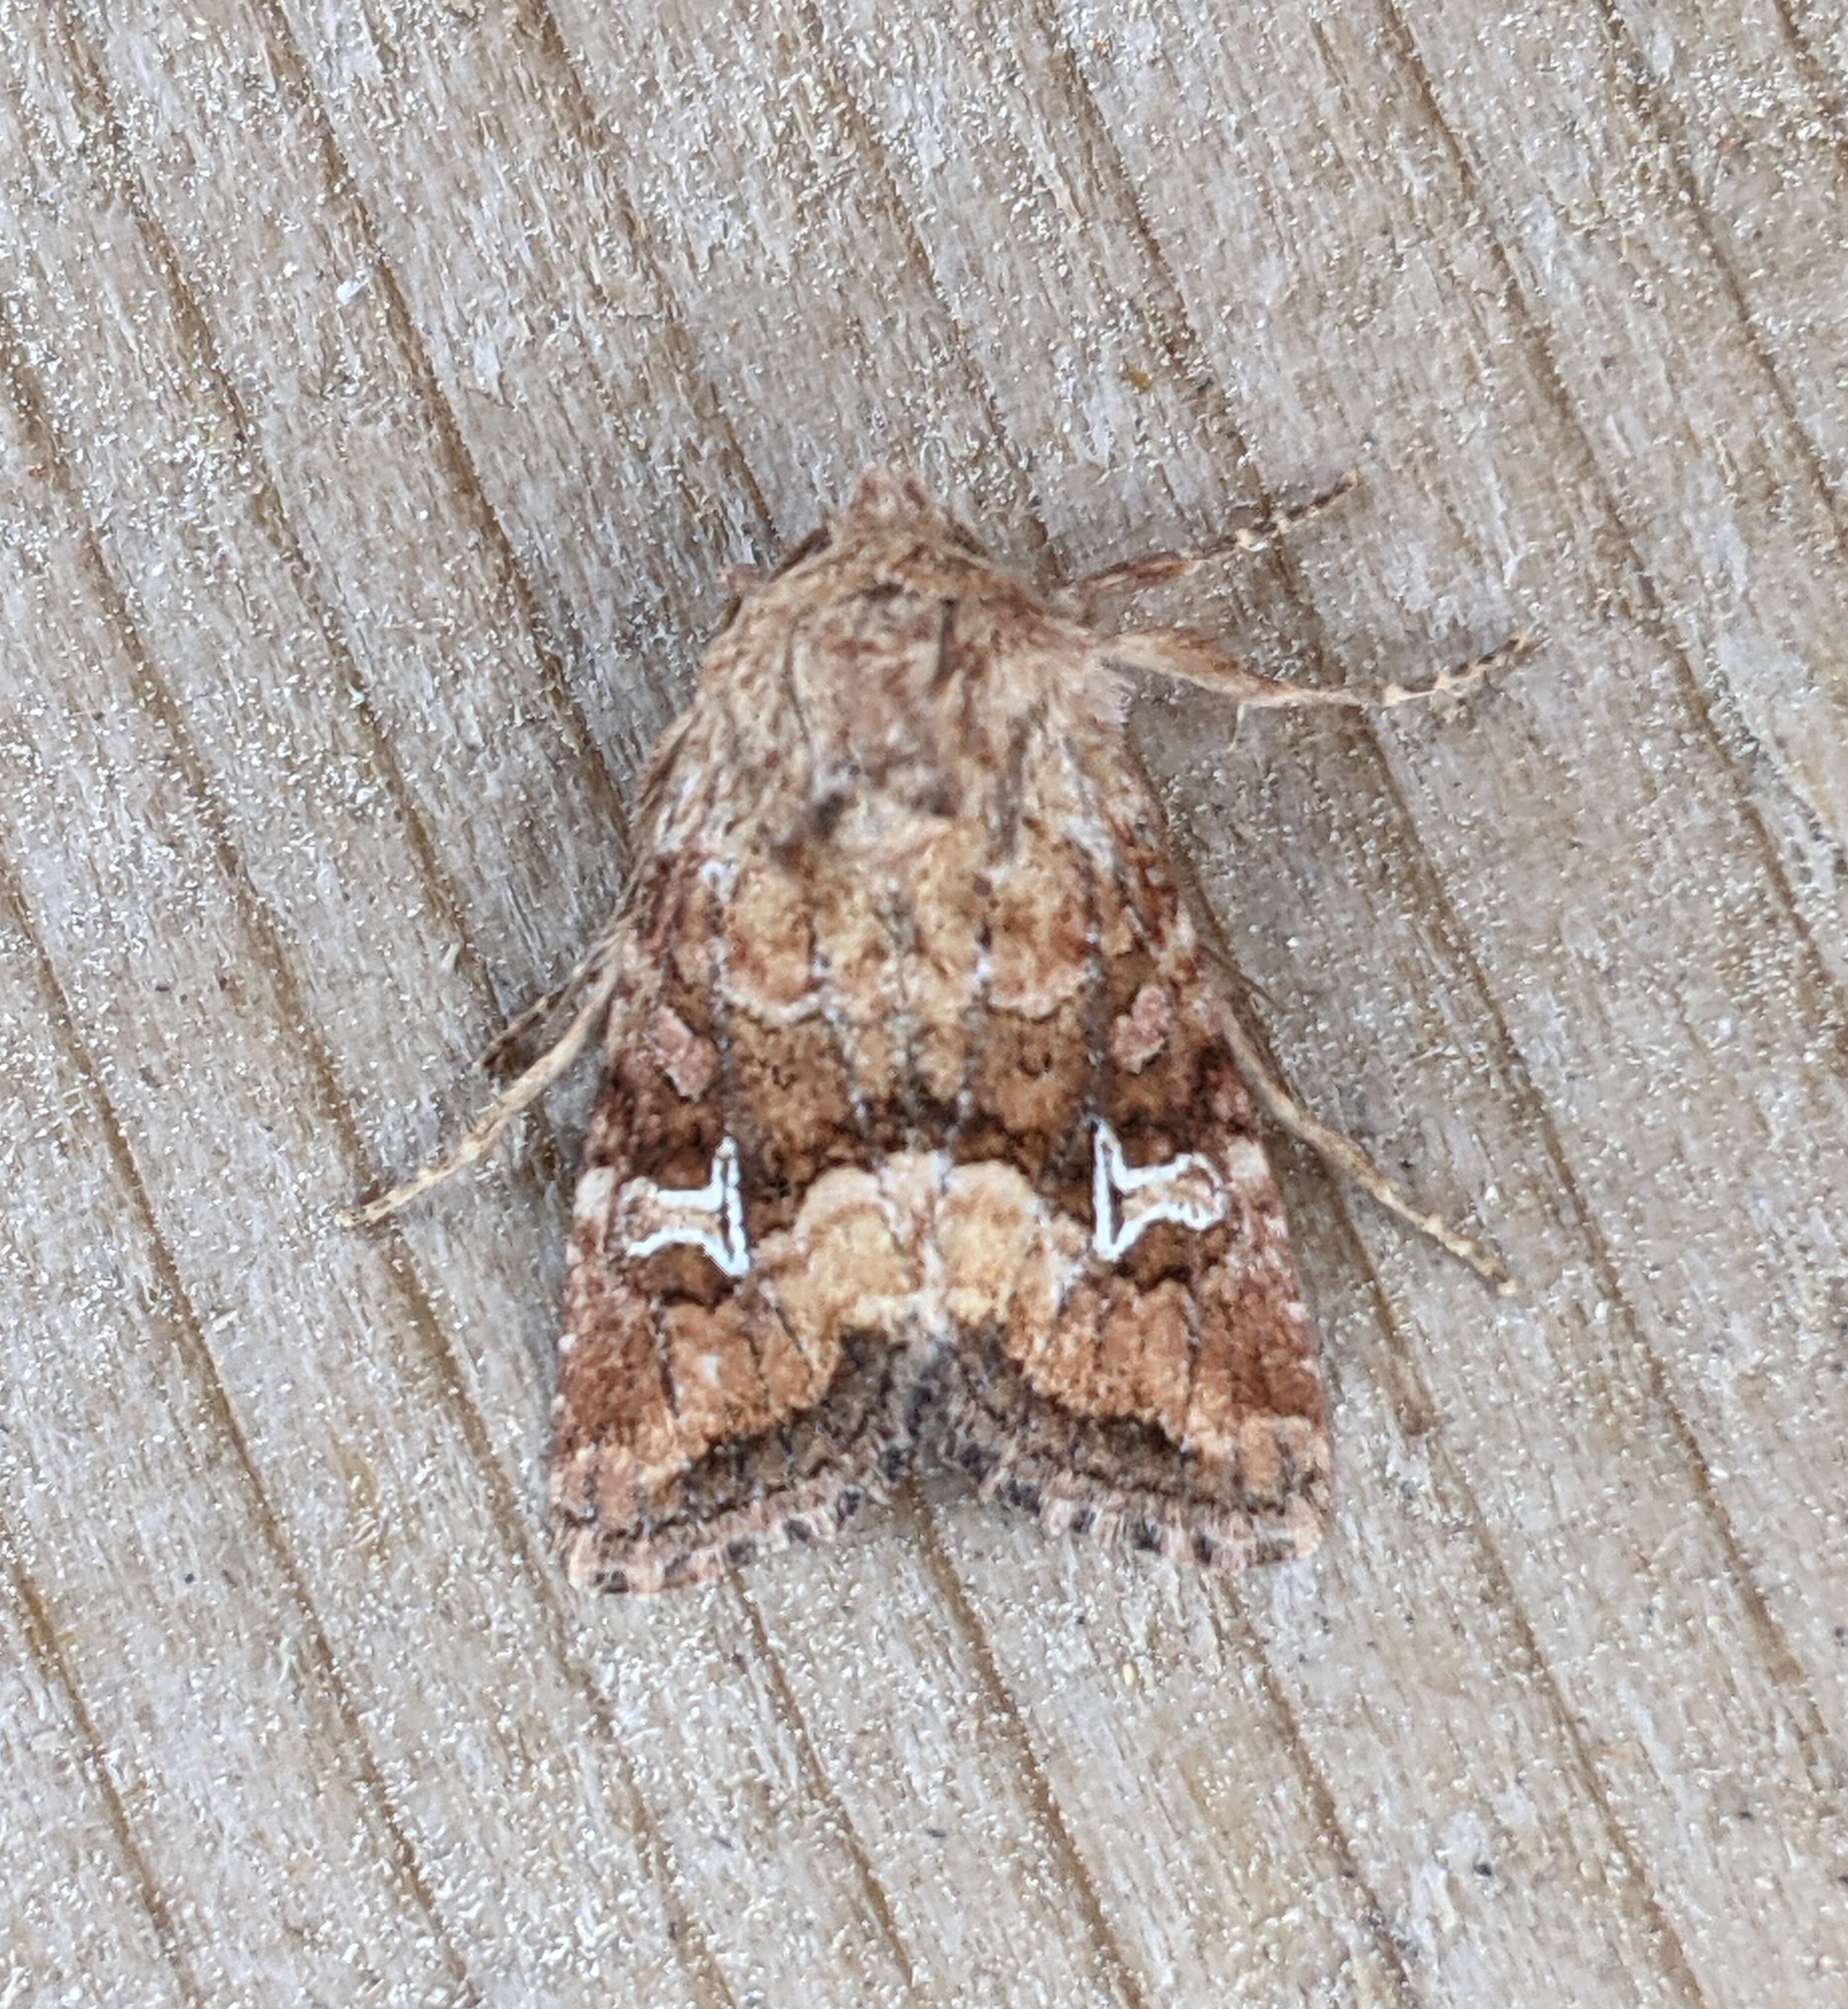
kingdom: Animalia
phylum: Arthropoda
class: Insecta
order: Lepidoptera
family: Noctuidae
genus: Lacinipolia
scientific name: Lacinipolia stricta
